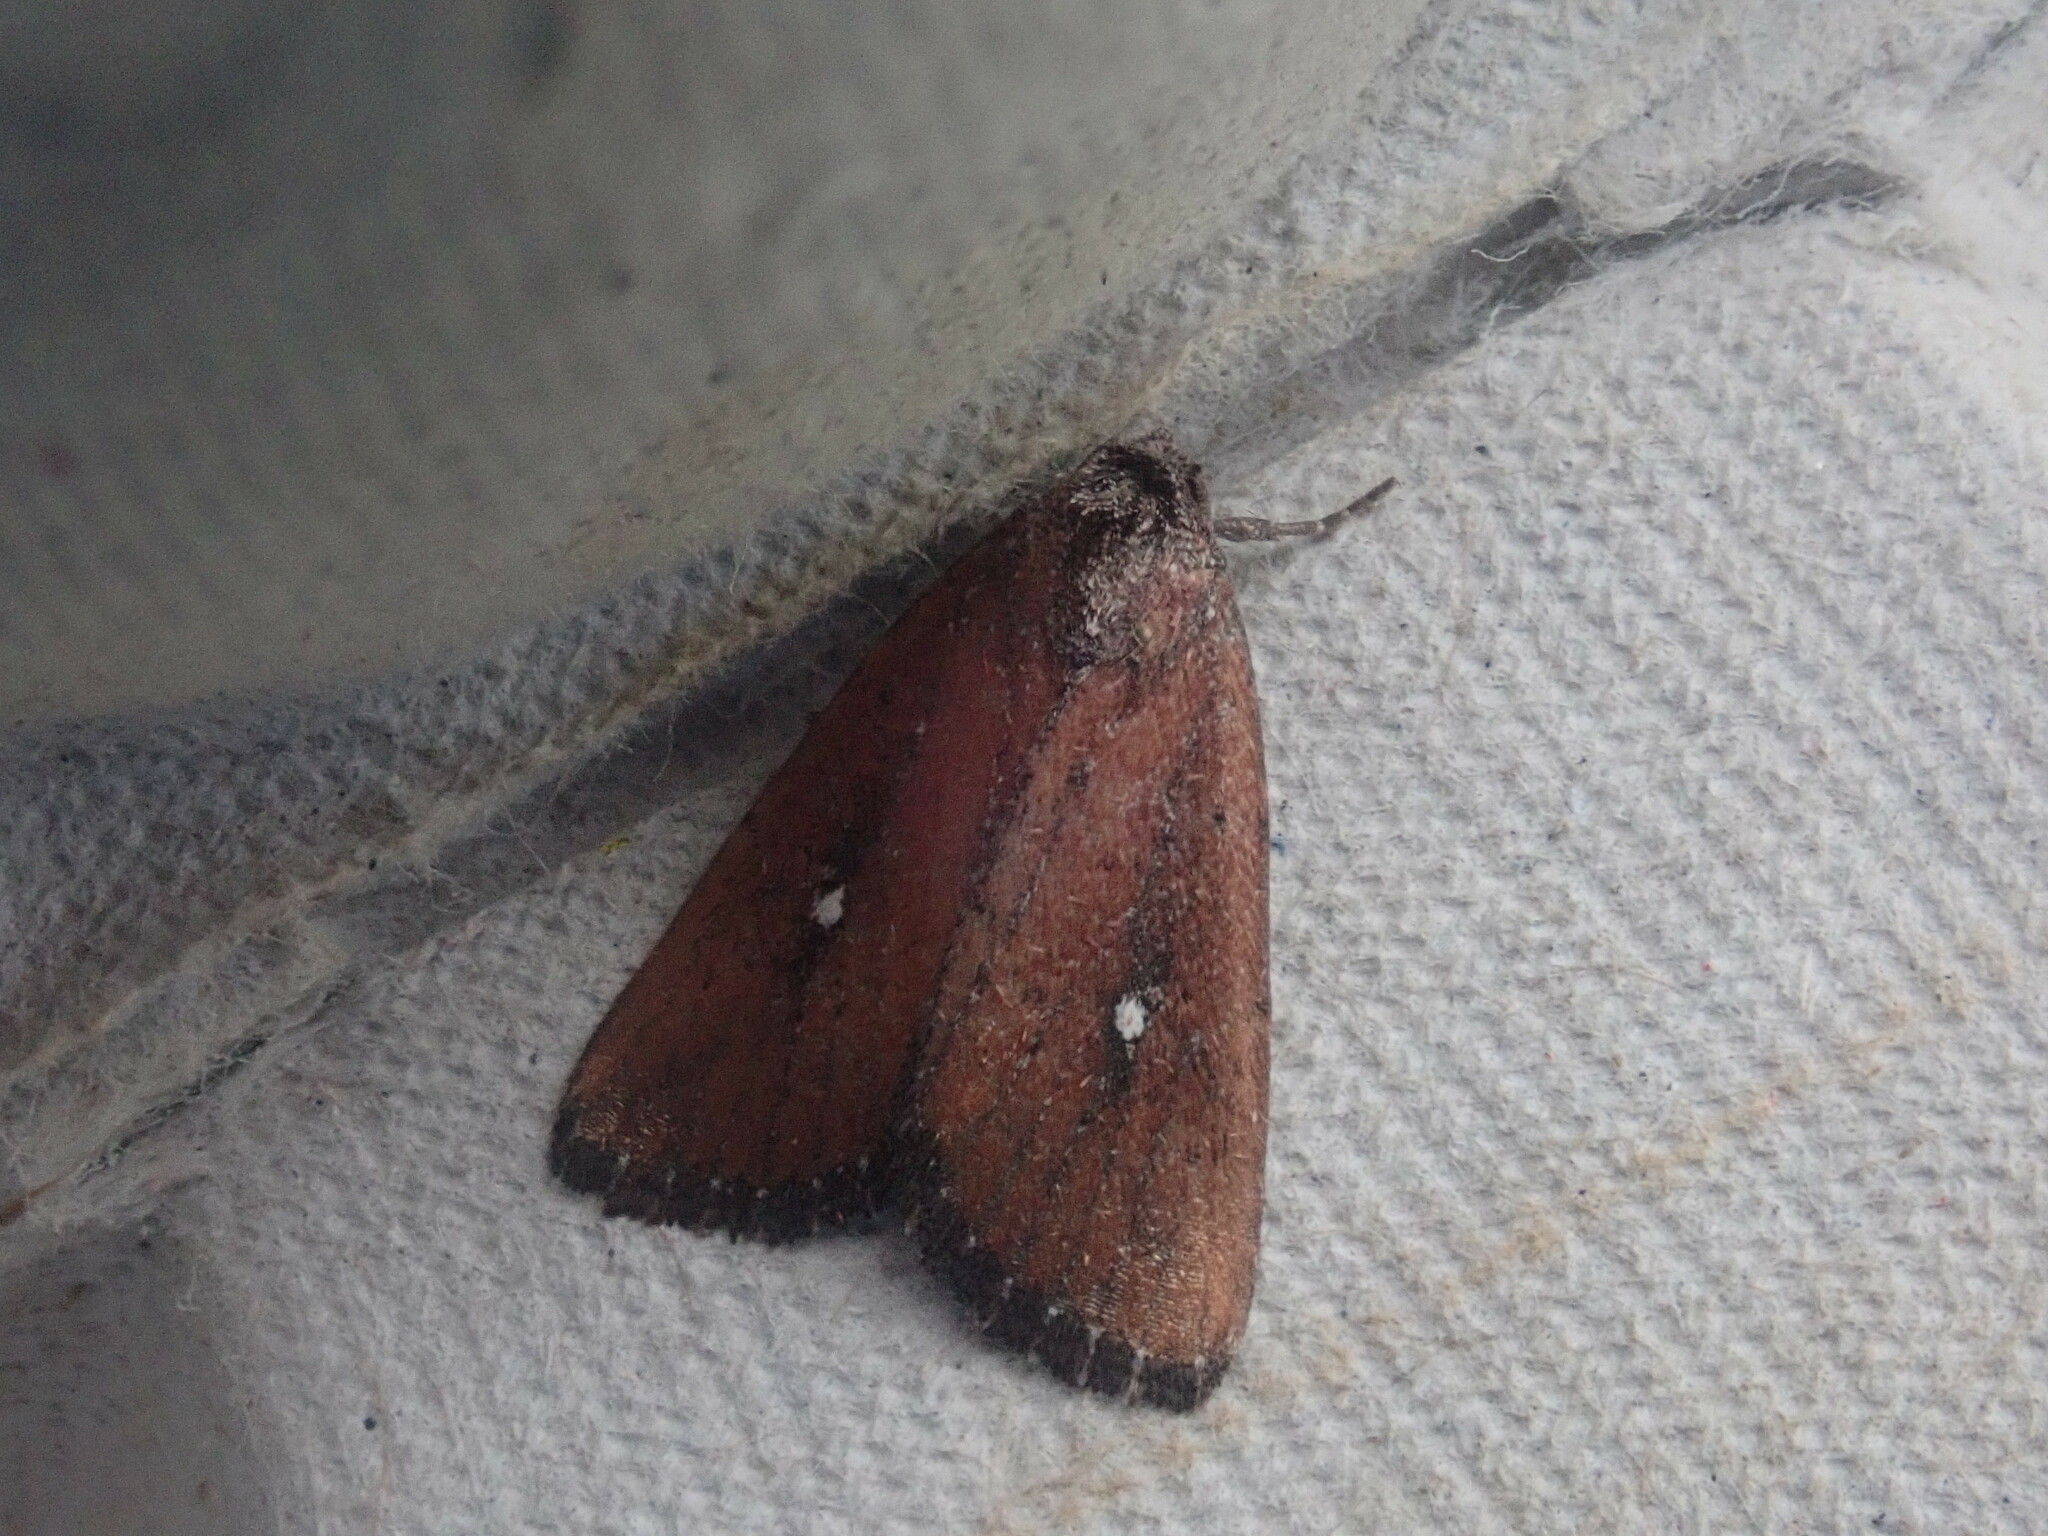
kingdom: Animalia
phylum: Arthropoda
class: Insecta
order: Lepidoptera
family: Noctuidae
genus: Condica
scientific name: Condica videns
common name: White-dotted groundling
